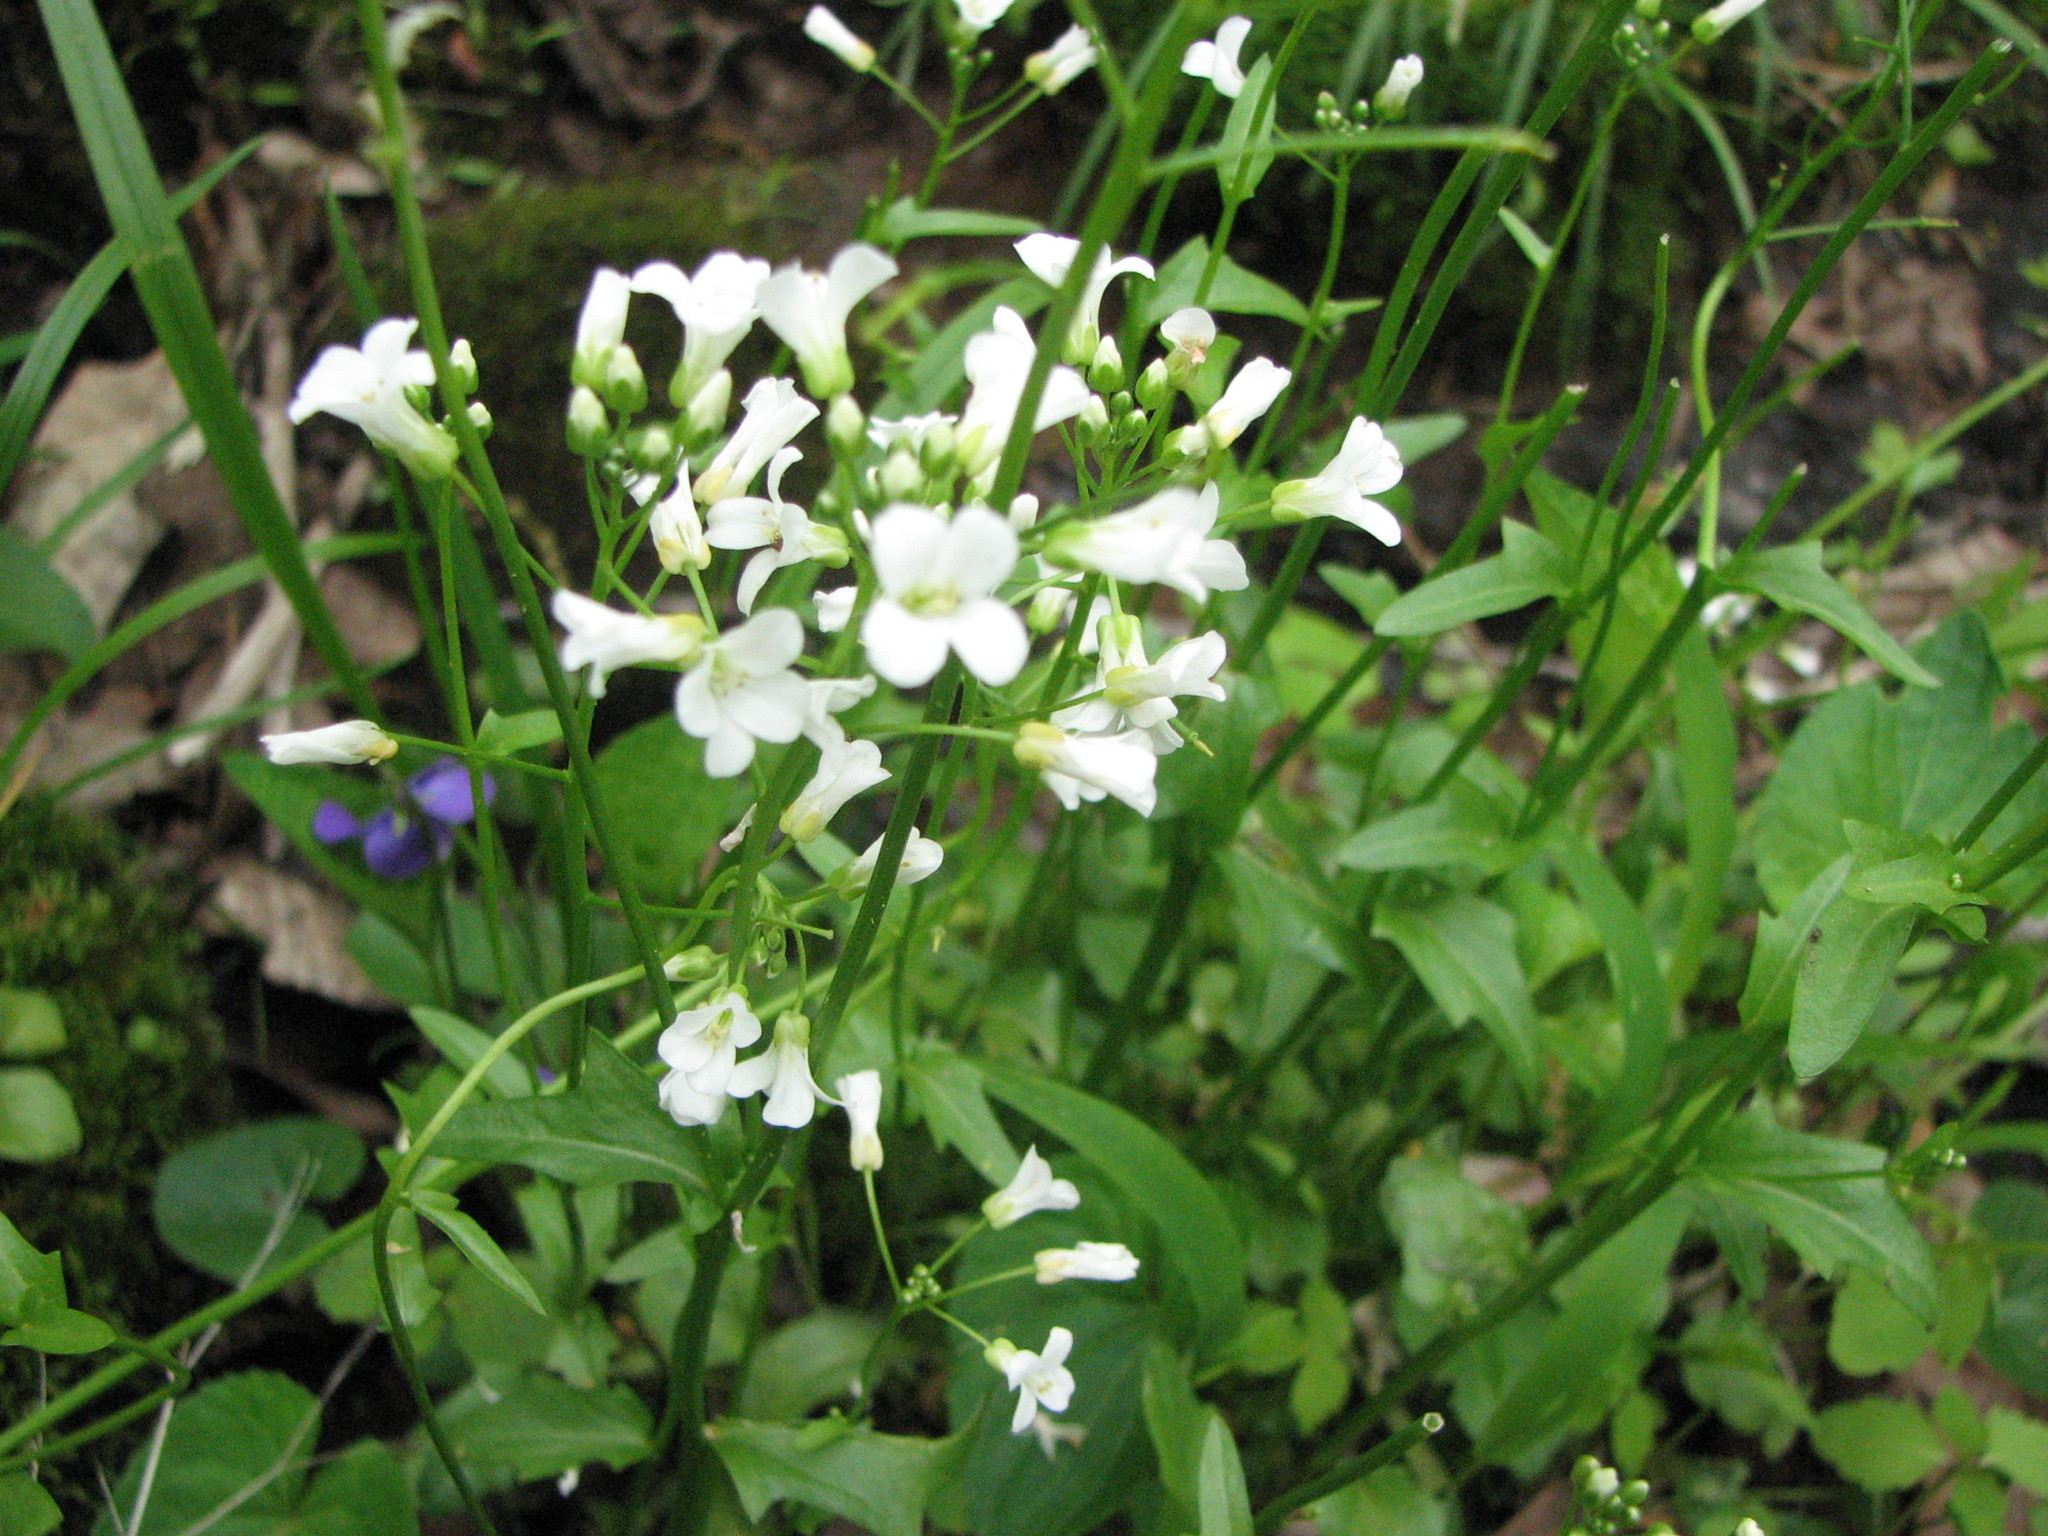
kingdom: Plantae
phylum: Tracheophyta
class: Magnoliopsida
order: Brassicales
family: Brassicaceae
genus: Cardamine
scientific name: Cardamine bulbosa
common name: Spring cress
